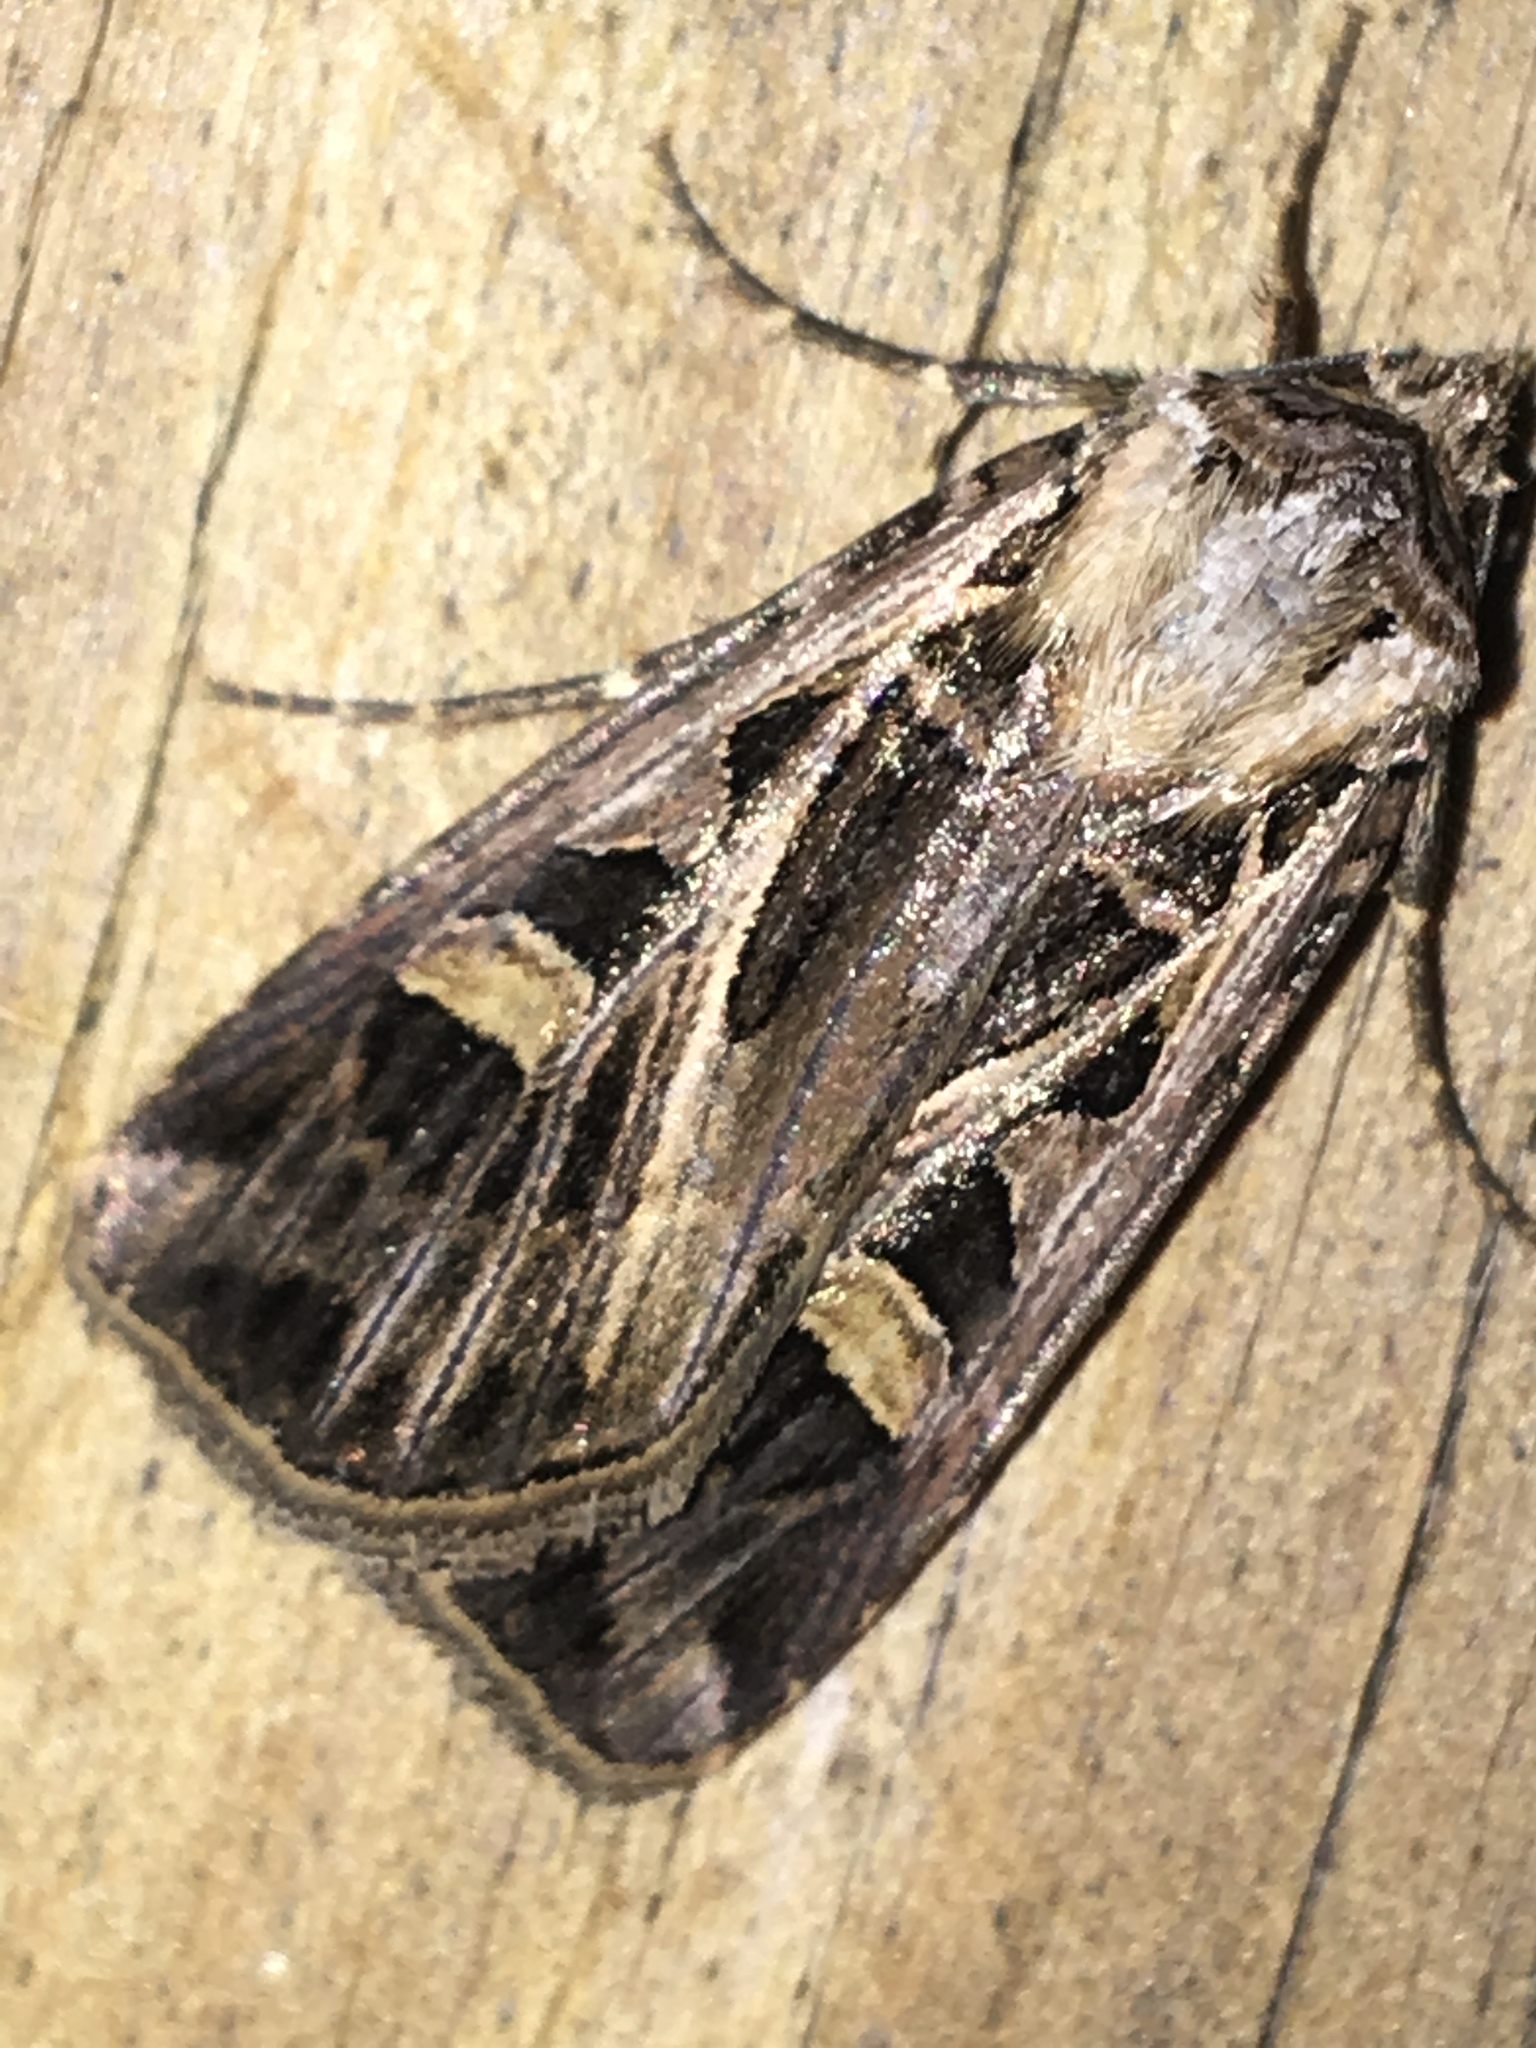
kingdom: Animalia
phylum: Arthropoda
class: Insecta
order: Lepidoptera
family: Noctuidae
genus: Feltia
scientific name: Feltia jaculifera
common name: Dingy cutworm moth
